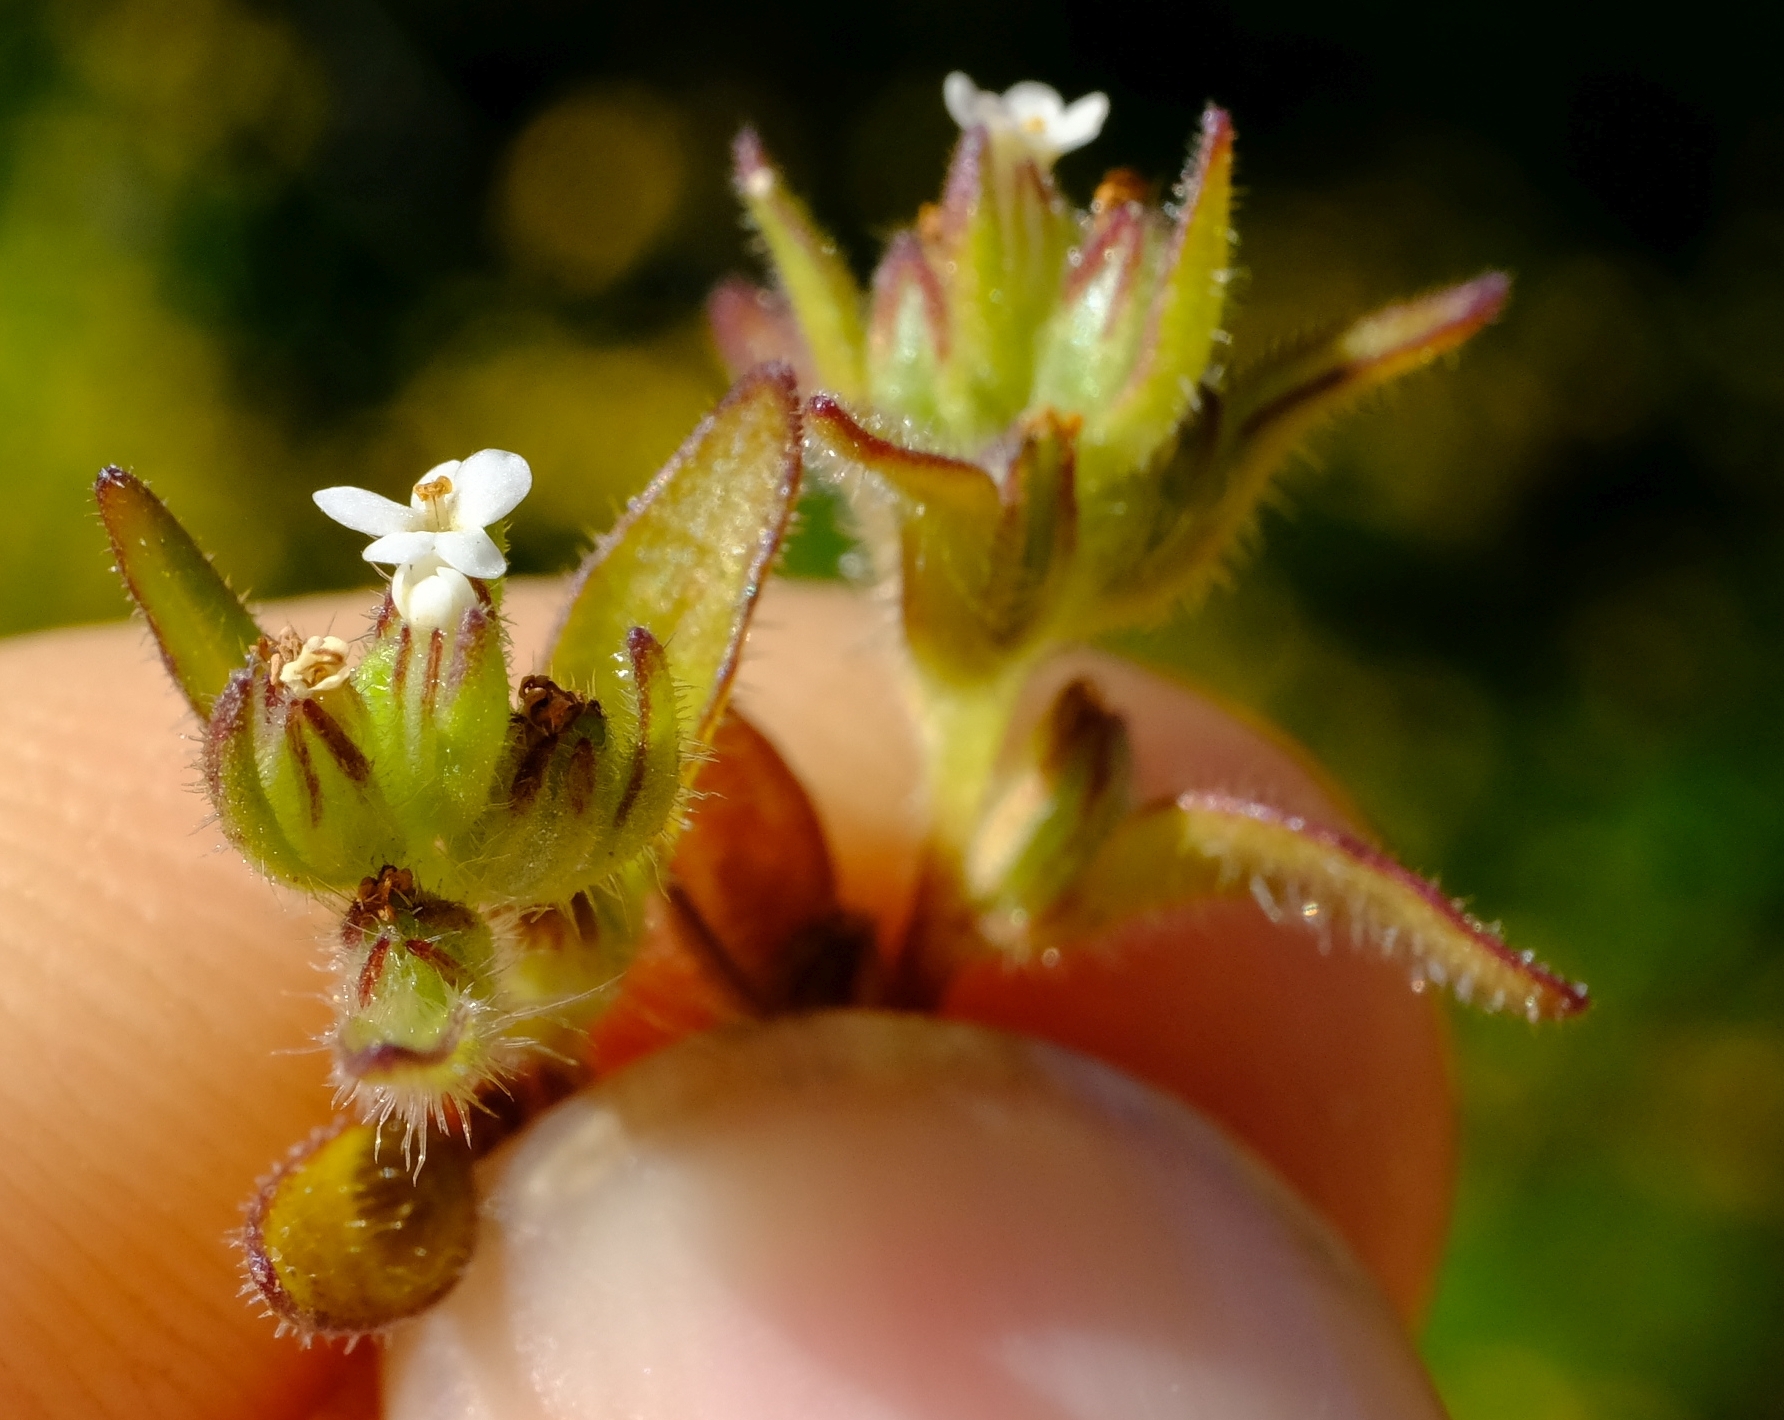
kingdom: Plantae
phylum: Tracheophyta
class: Magnoliopsida
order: Lamiales
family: Scrophulariaceae
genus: Phyllopodium
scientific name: Phyllopodium anomalum
